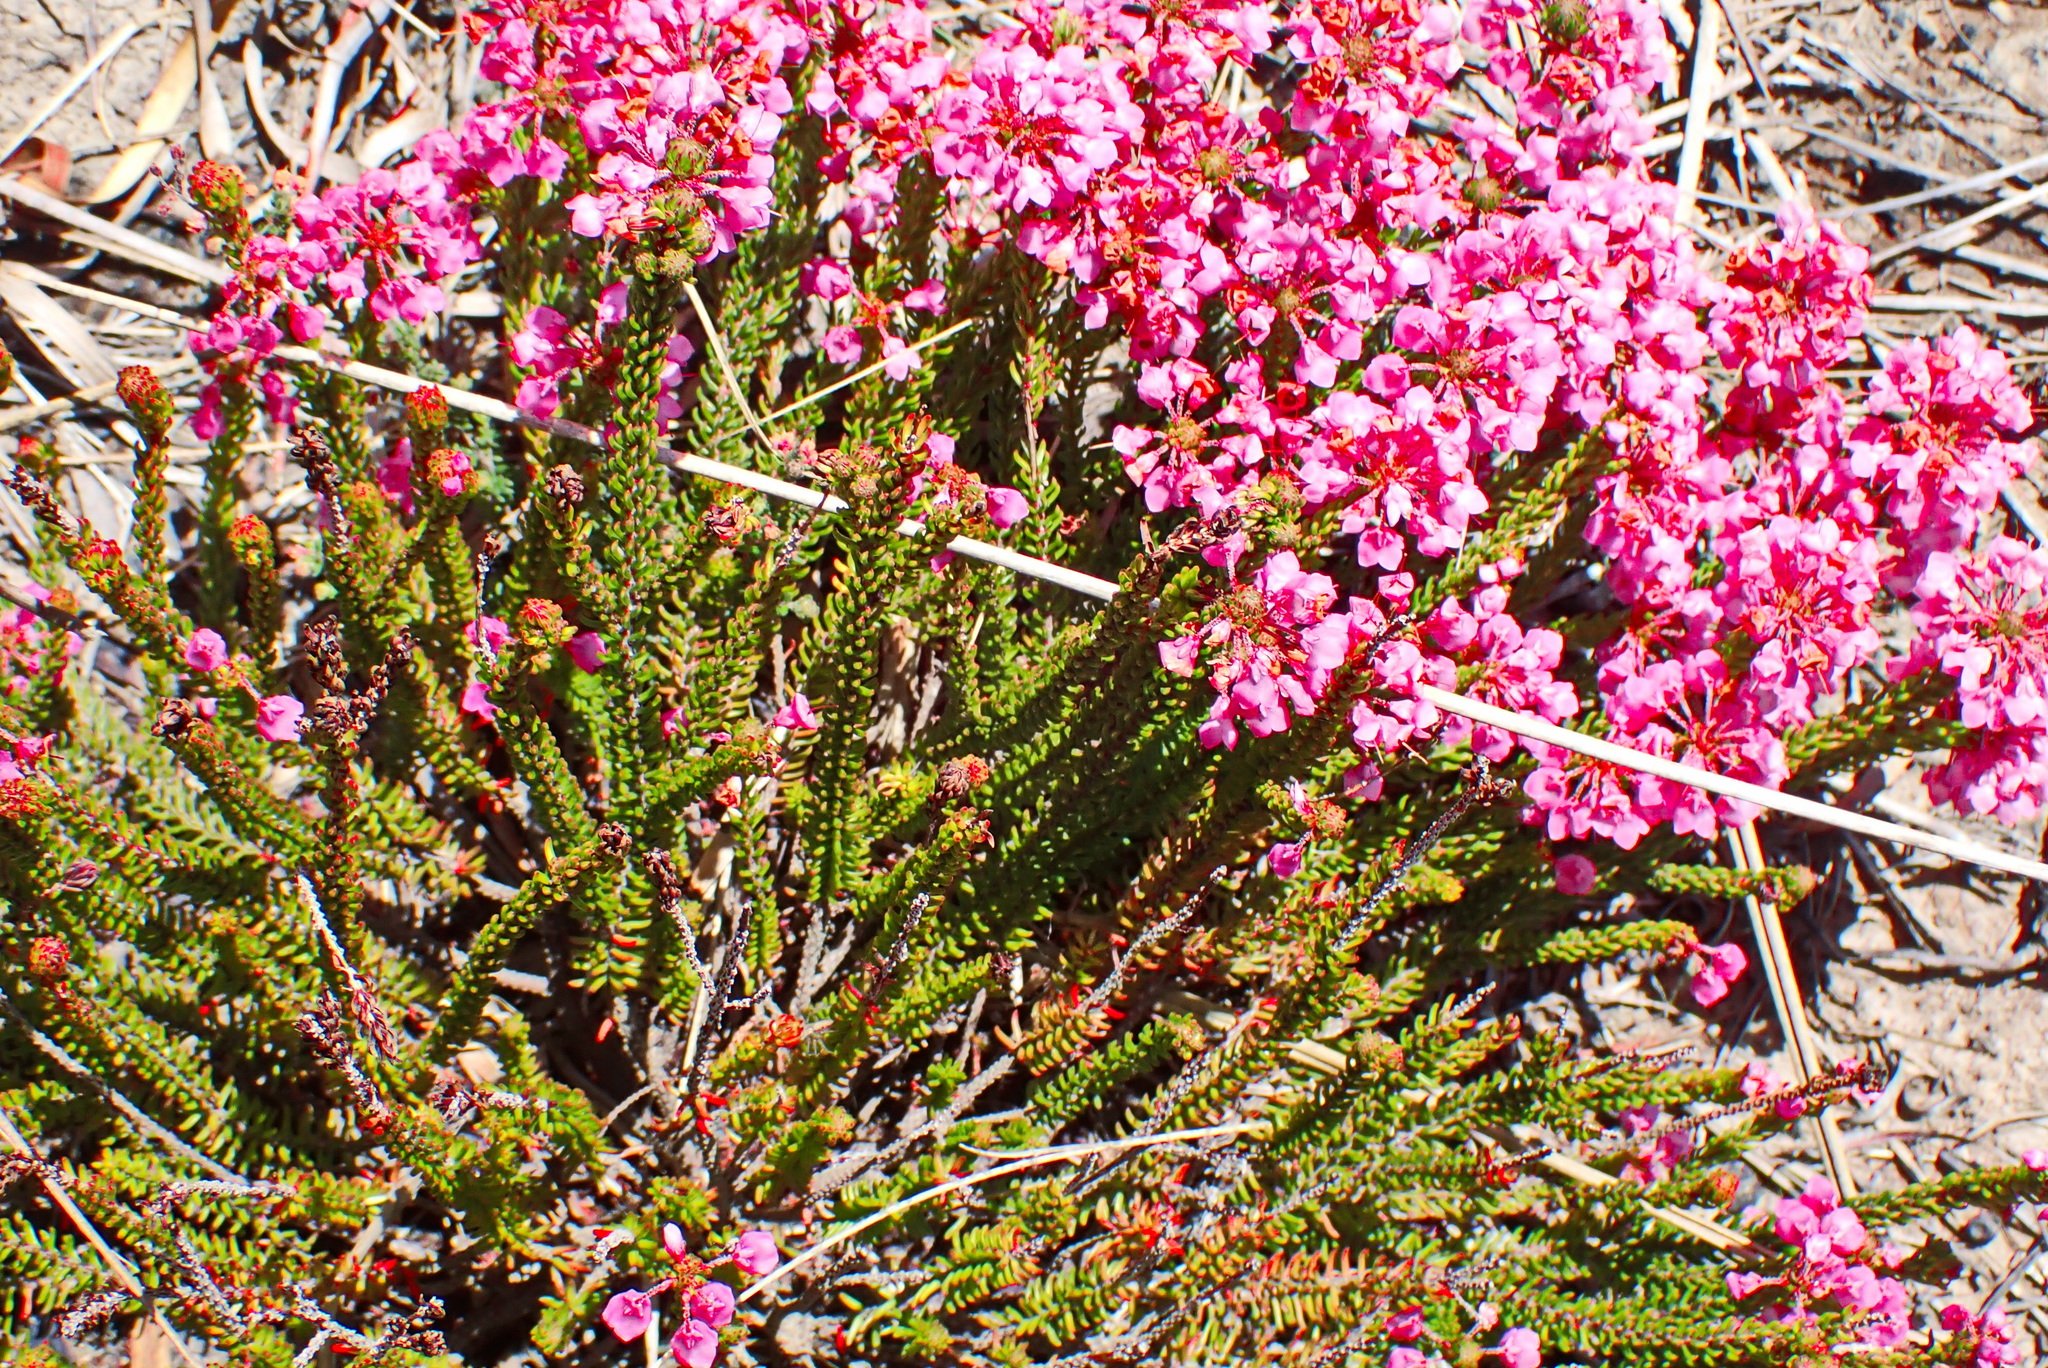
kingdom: Plantae
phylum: Tracheophyta
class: Magnoliopsida
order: Ericales
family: Ericaceae
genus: Erica
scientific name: Erica seriphiifolia
